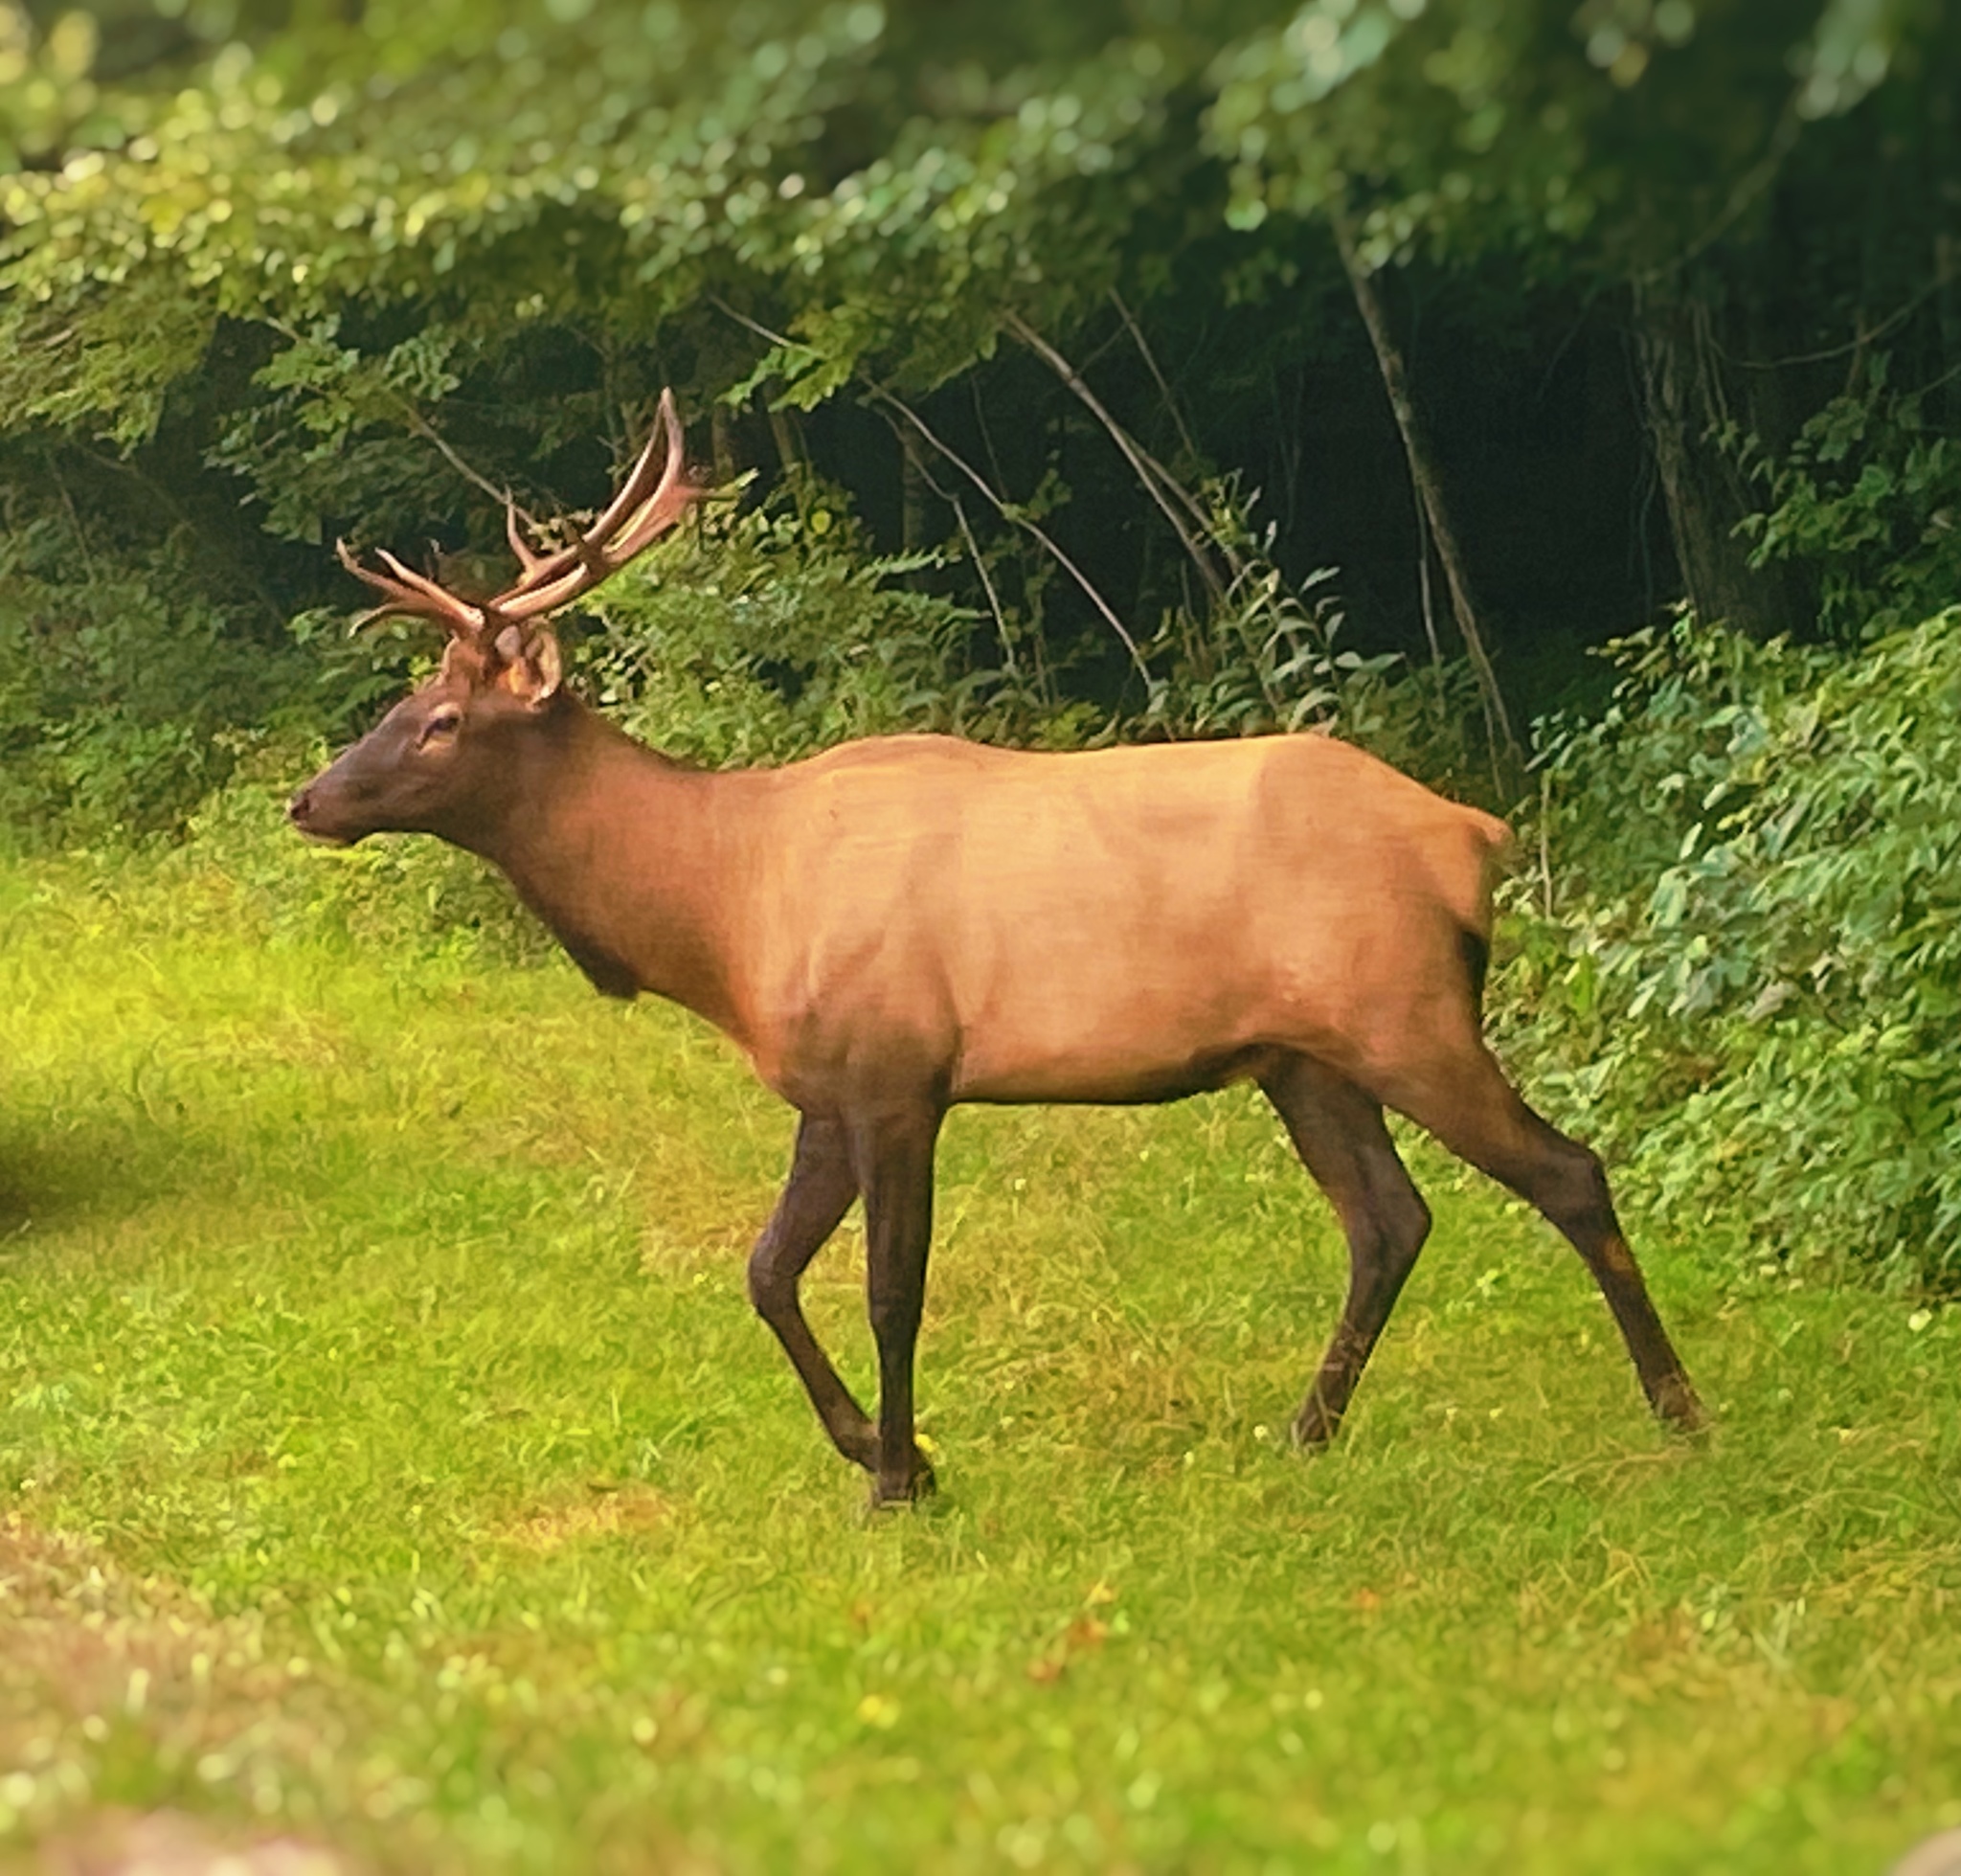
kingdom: Animalia
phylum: Chordata
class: Mammalia
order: Artiodactyla
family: Cervidae
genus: Cervus
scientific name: Cervus elaphus
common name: Red deer
